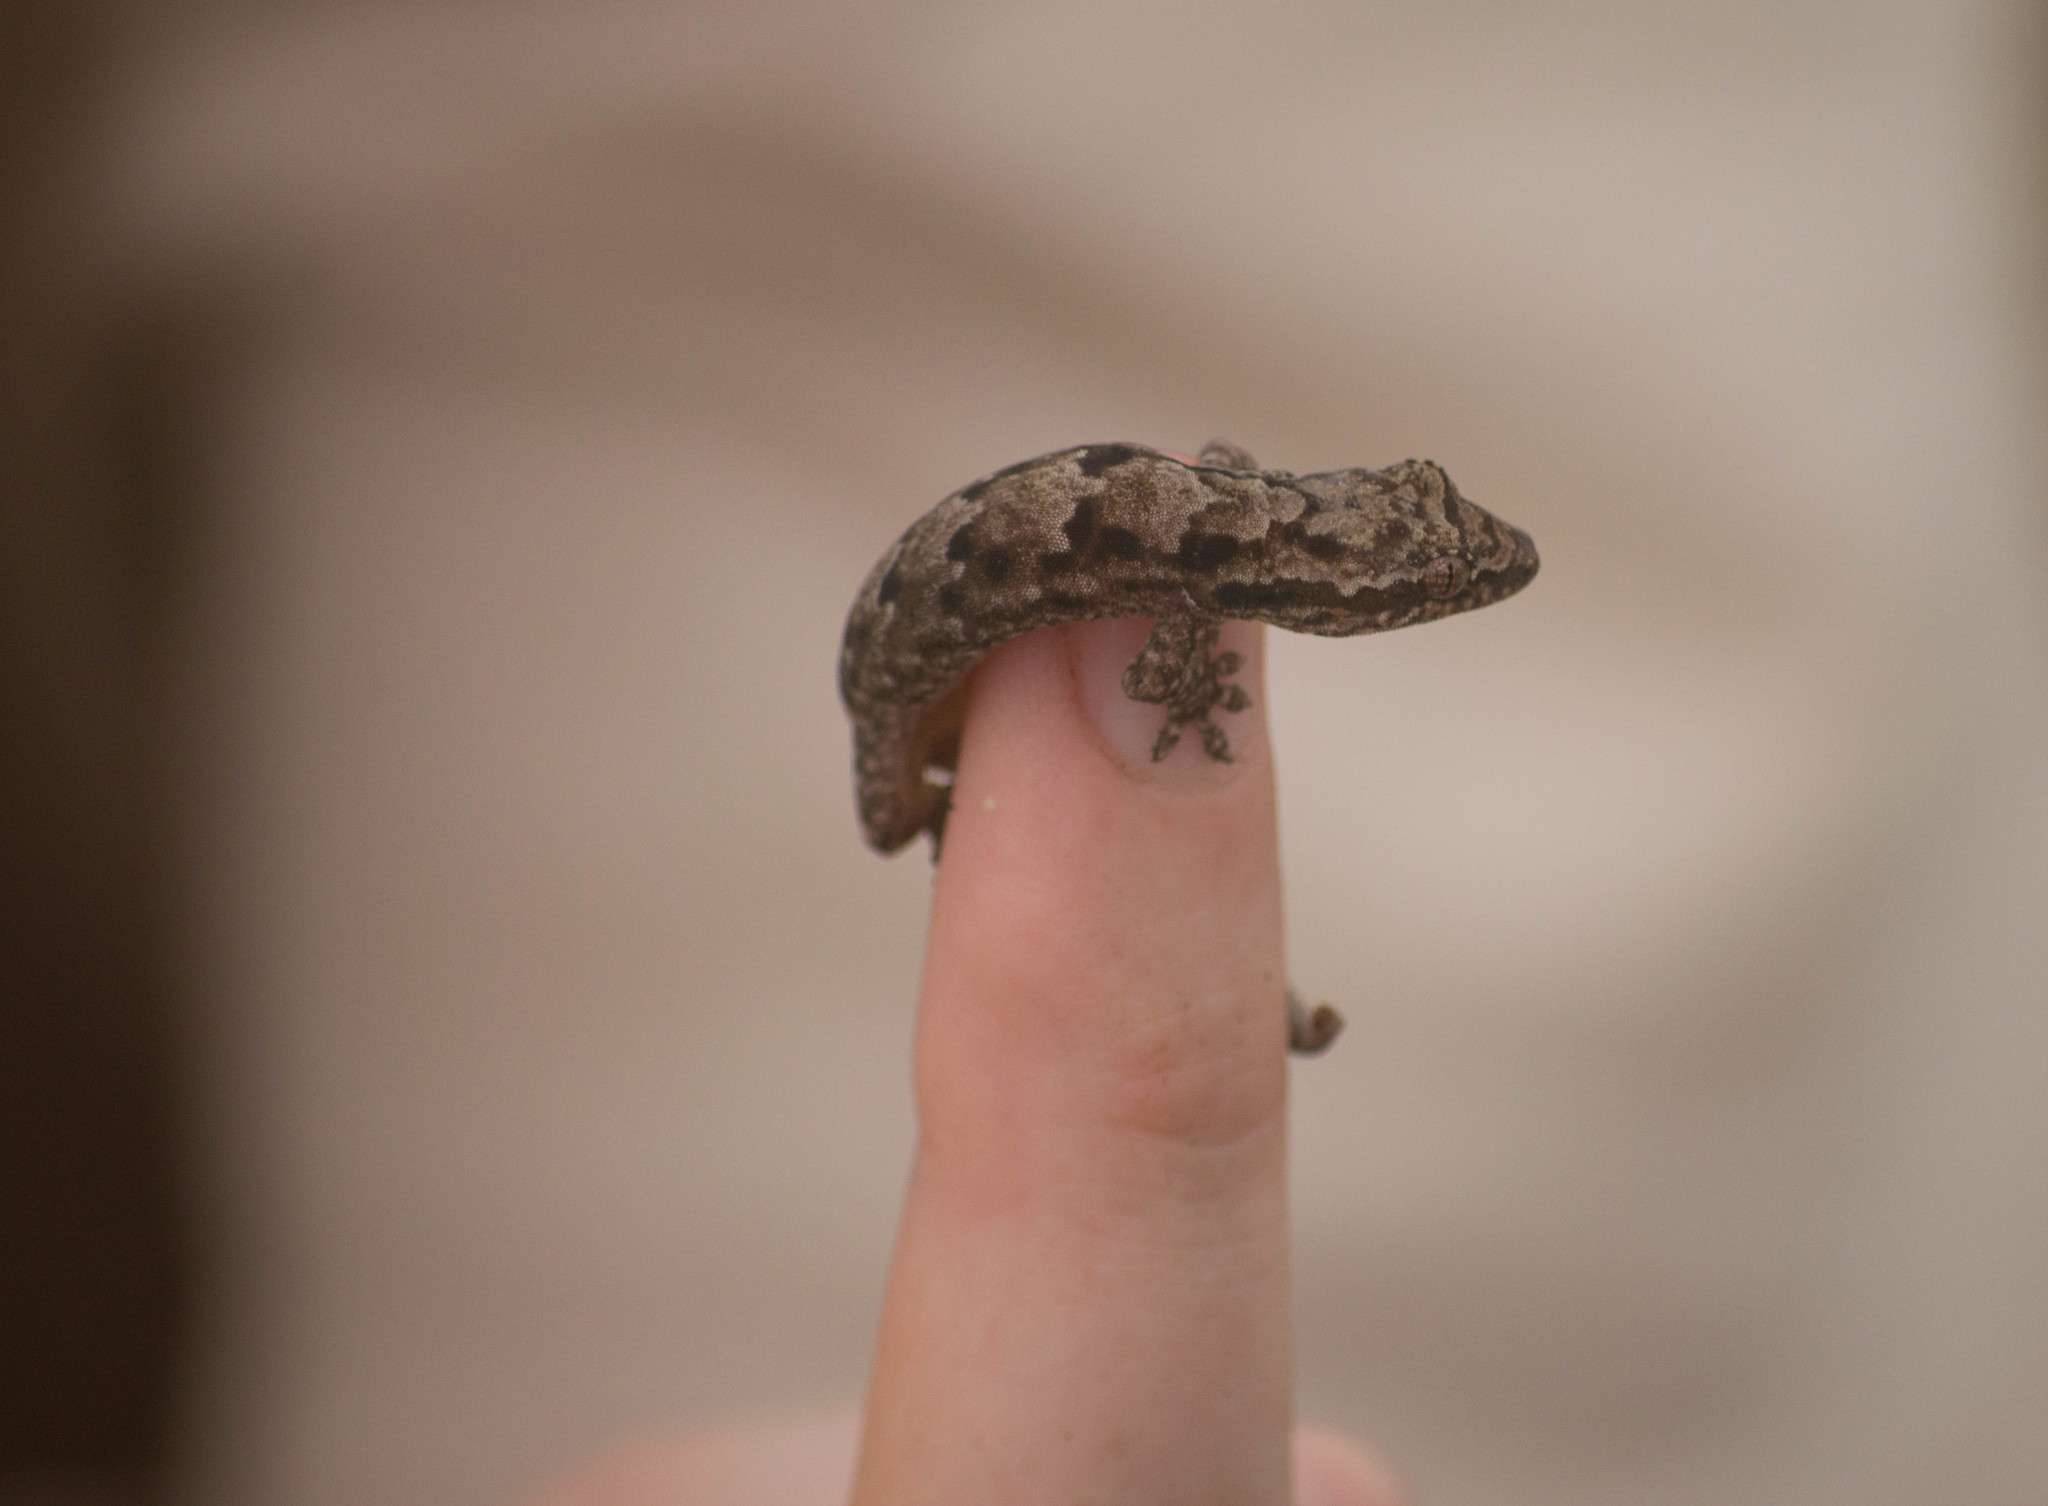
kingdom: Animalia
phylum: Chordata
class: Squamata
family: Gekkonidae
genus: Lepidodactylus
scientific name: Lepidodactylus lugubris
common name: Mourning gecko
